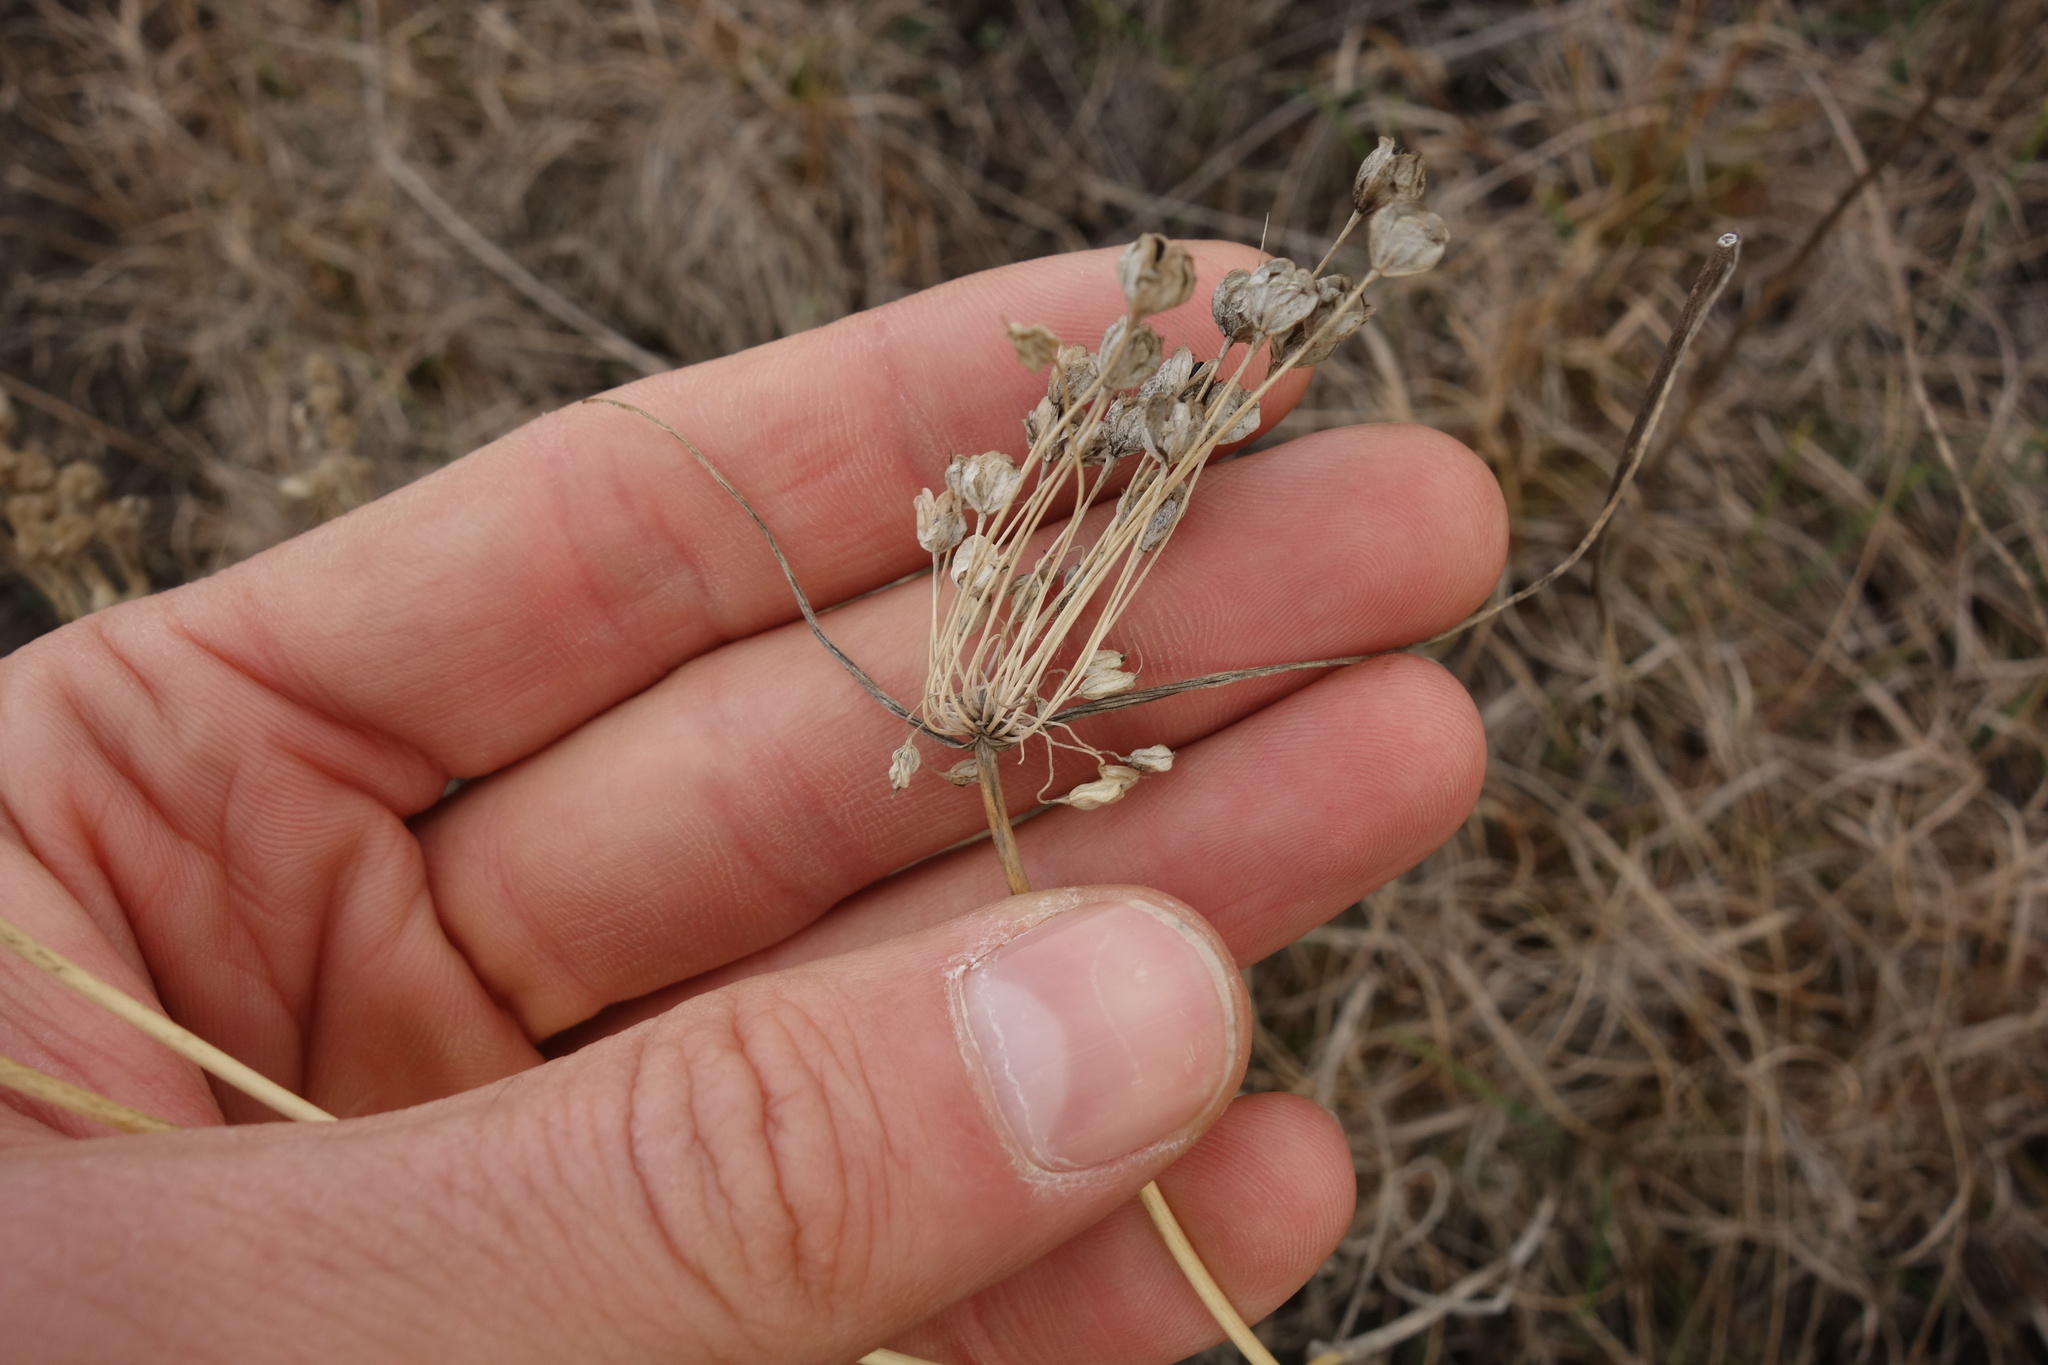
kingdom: Plantae
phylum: Tracheophyta
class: Liliopsida
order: Asparagales
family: Amaryllidaceae
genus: Allium
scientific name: Allium flavum
